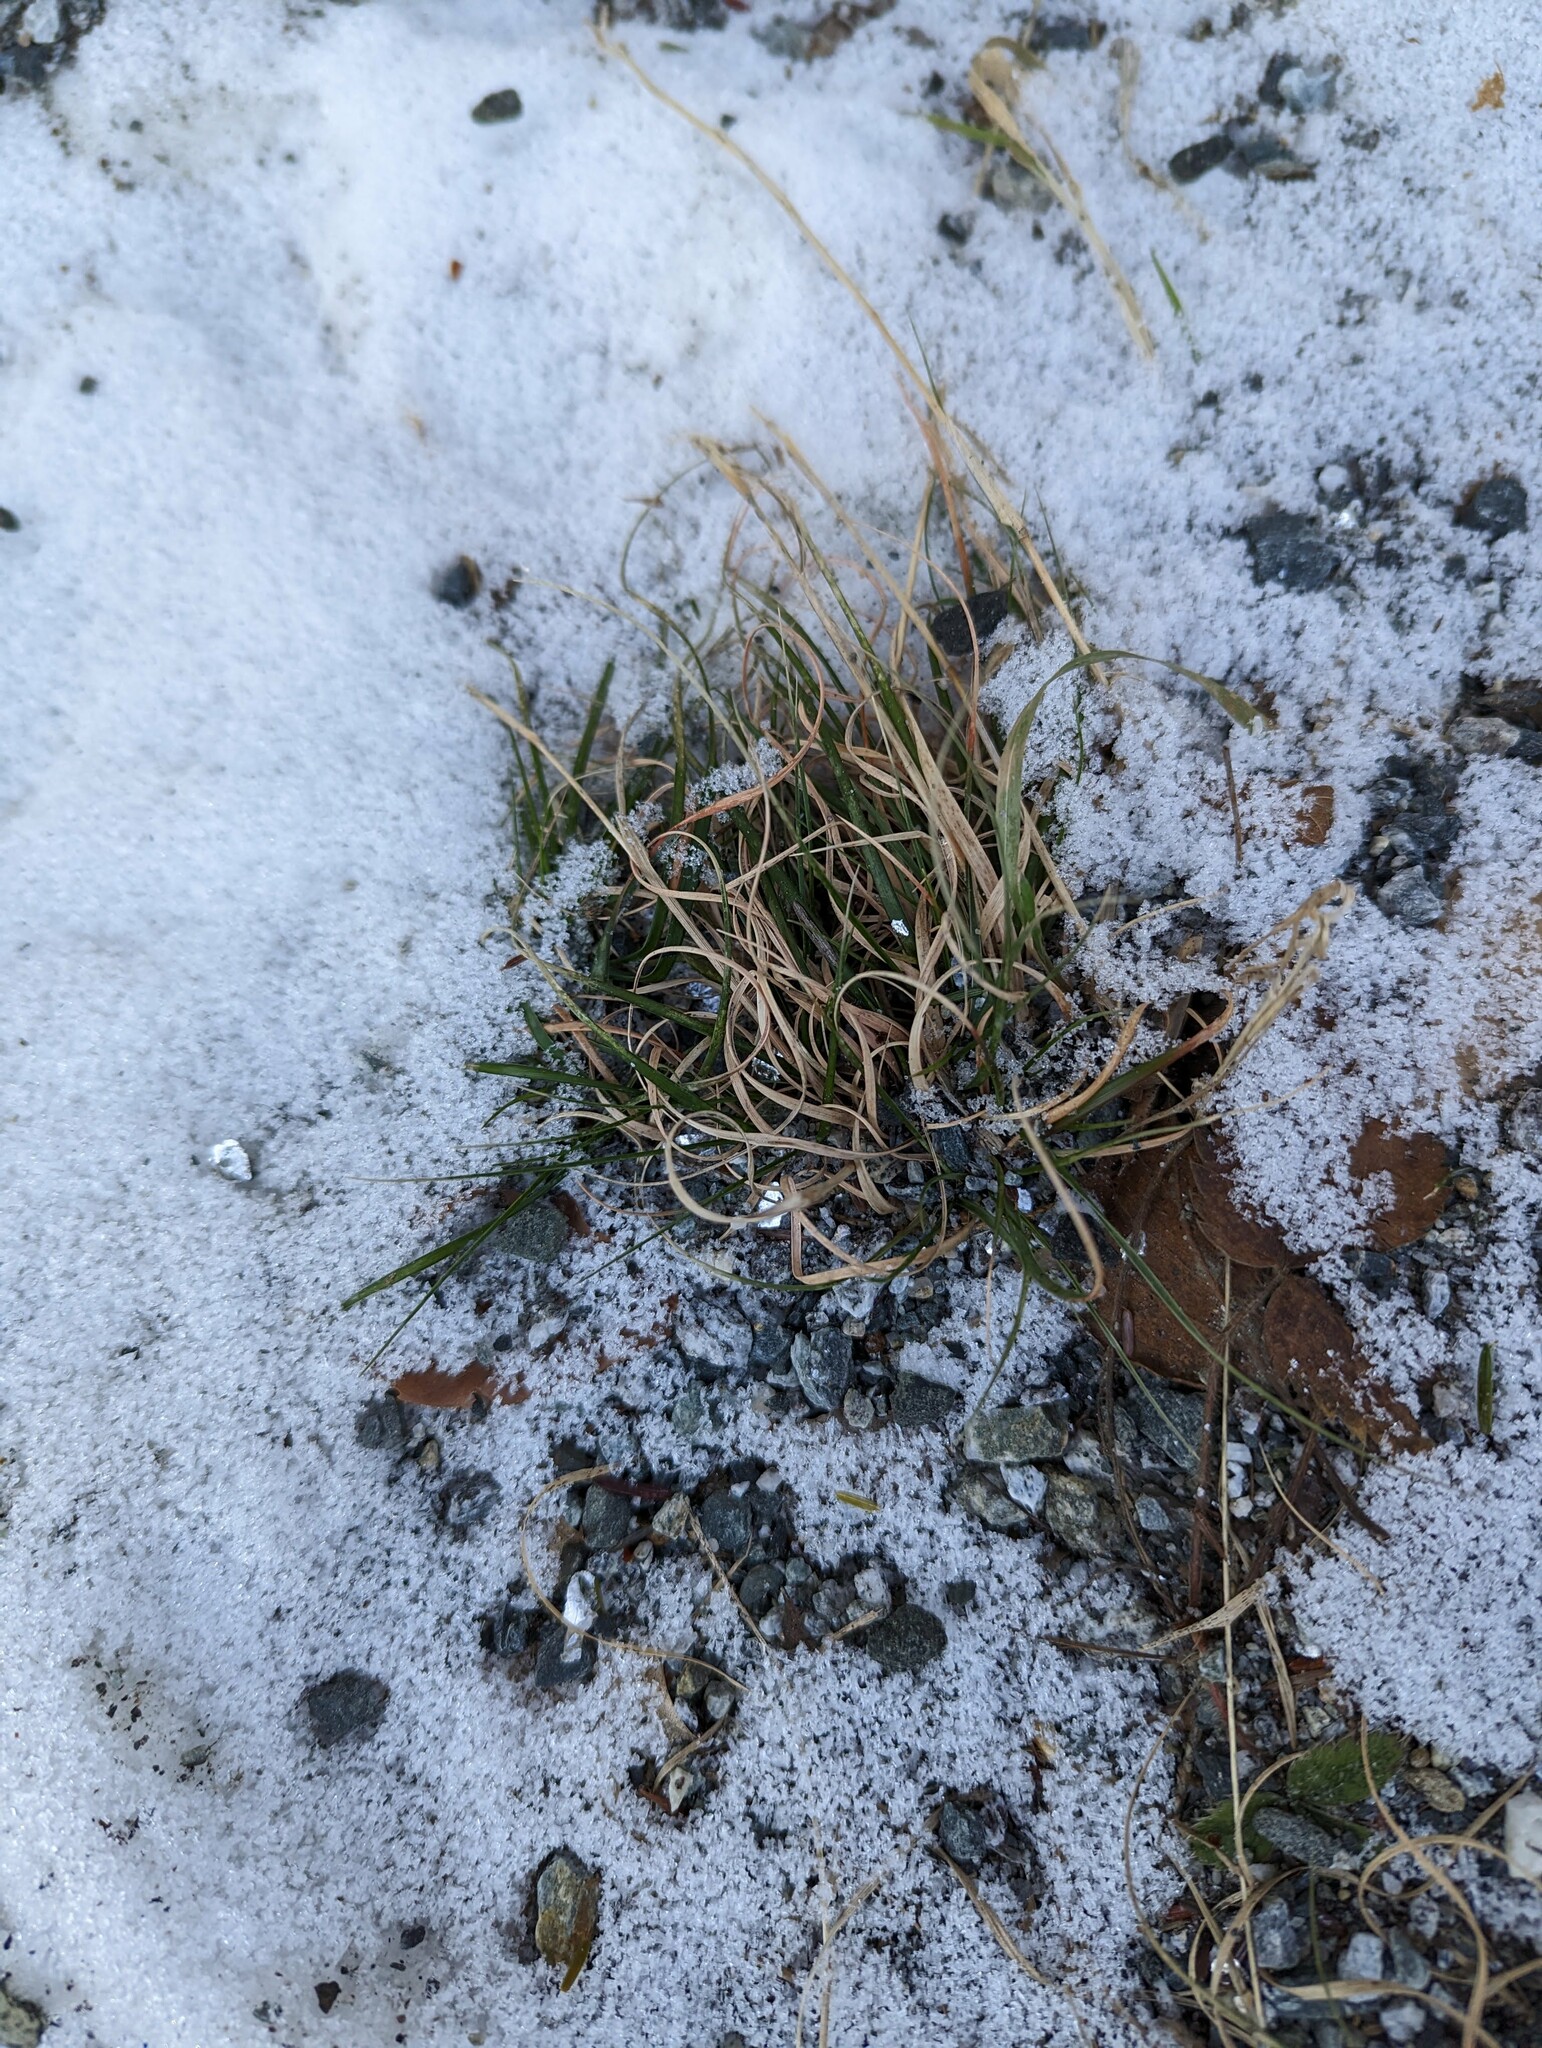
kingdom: Plantae
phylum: Tracheophyta
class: Liliopsida
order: Poales
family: Poaceae
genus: Danthonia
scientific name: Danthonia spicata
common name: Common wild oatgrass
